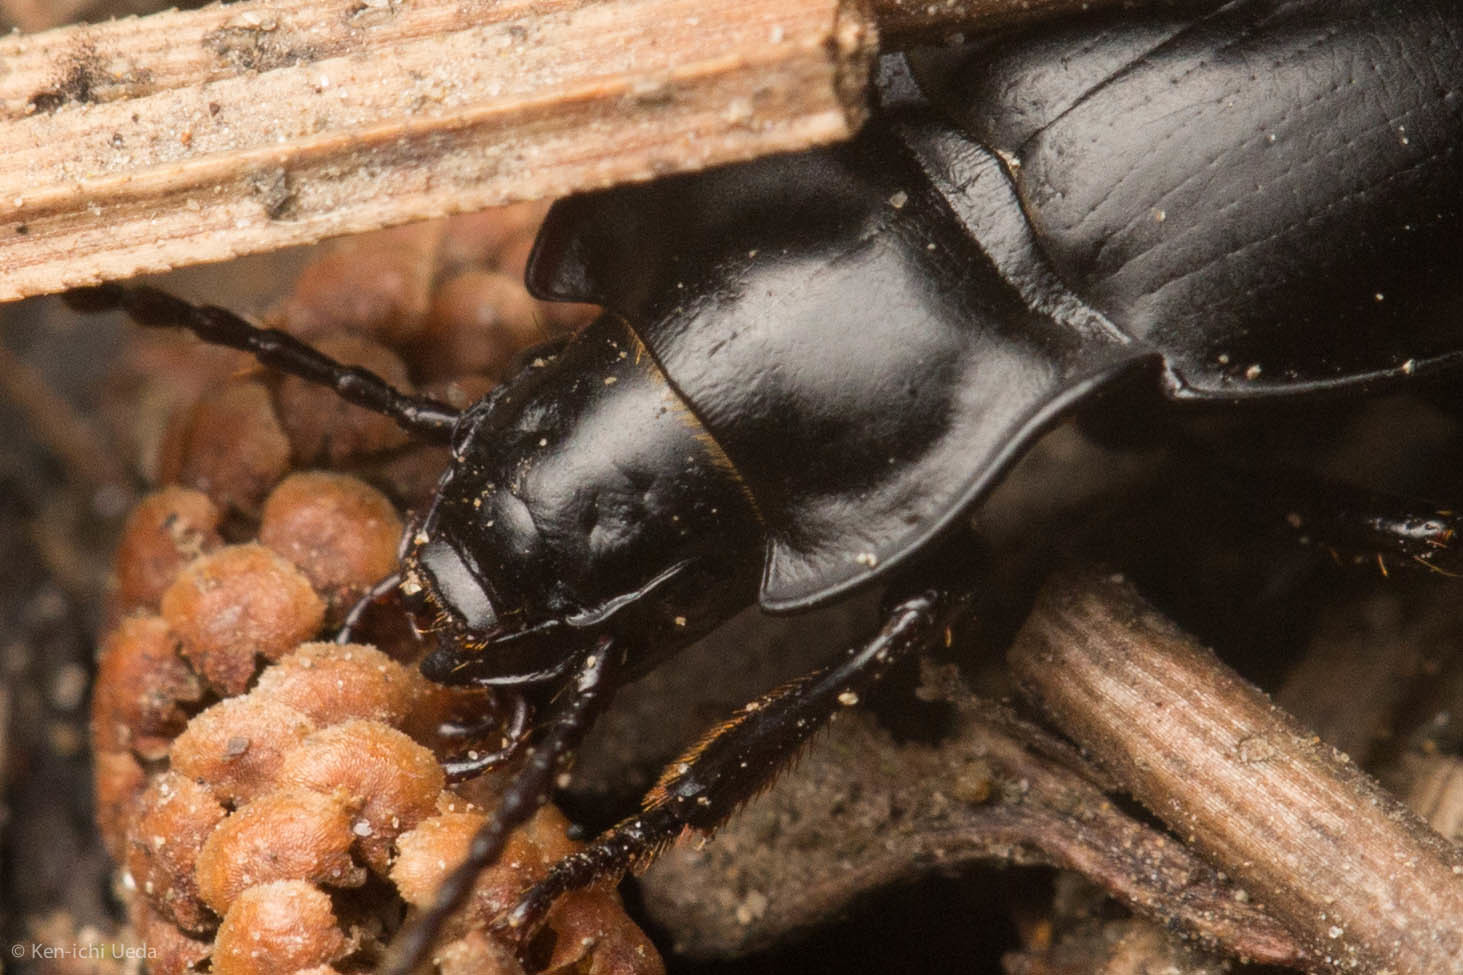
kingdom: Animalia
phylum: Arthropoda
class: Insecta
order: Coleoptera
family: Carabidae
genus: Metrius
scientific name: Metrius contractus
